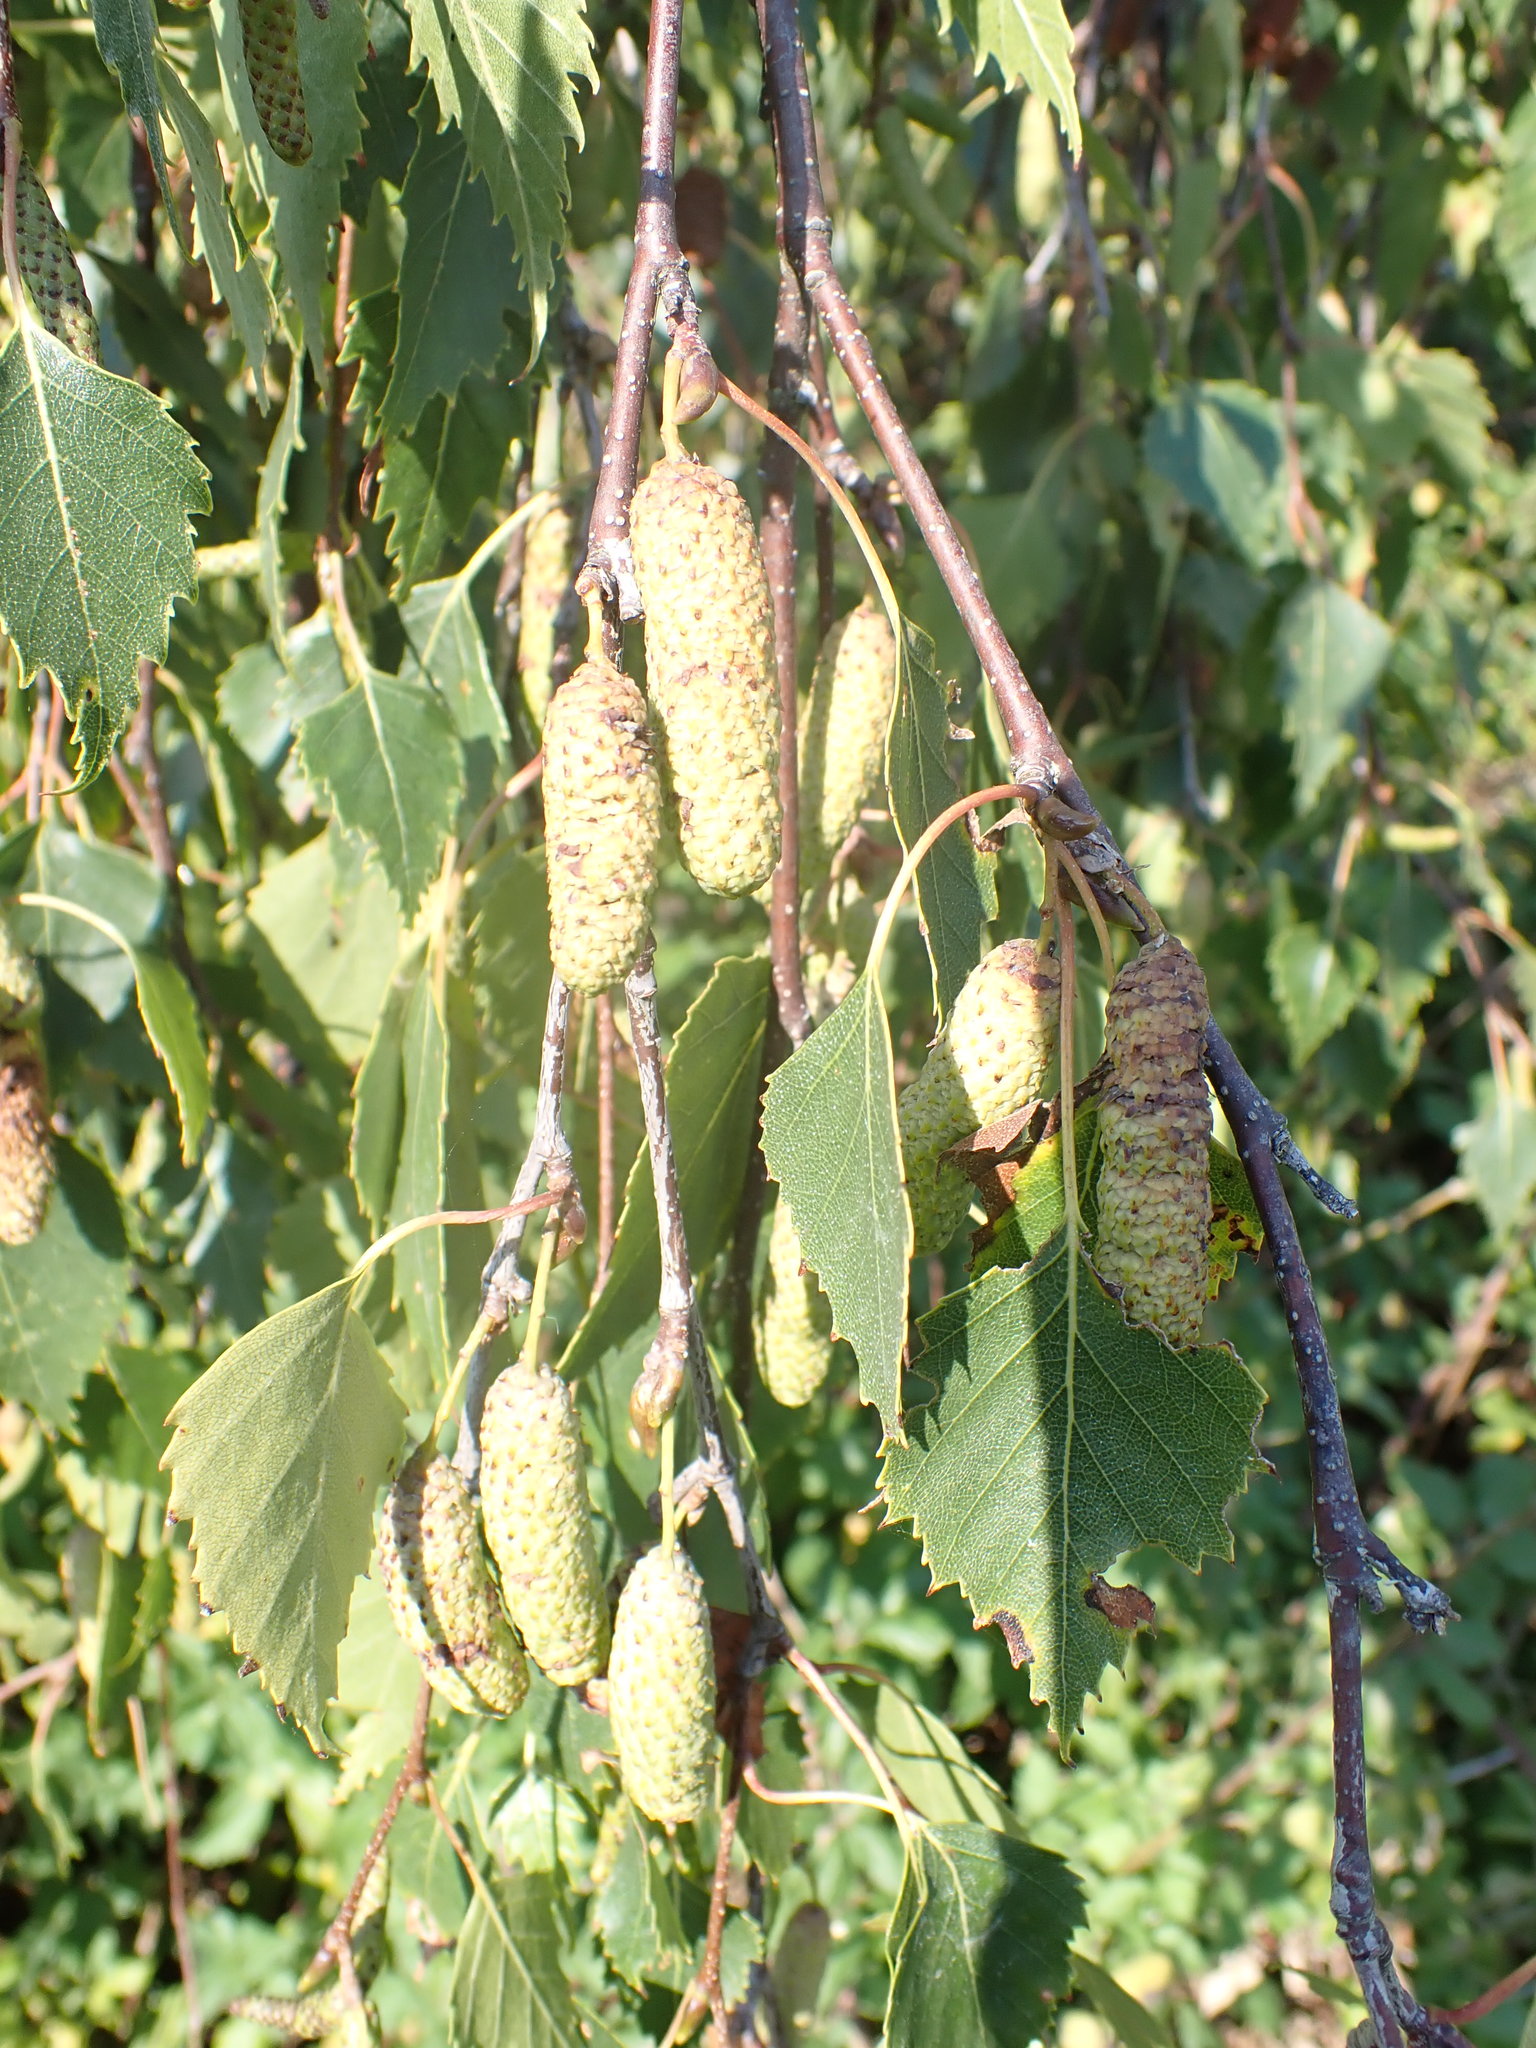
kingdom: Plantae
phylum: Tracheophyta
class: Magnoliopsida
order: Fagales
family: Betulaceae
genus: Betula
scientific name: Betula pendula
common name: Silver birch
